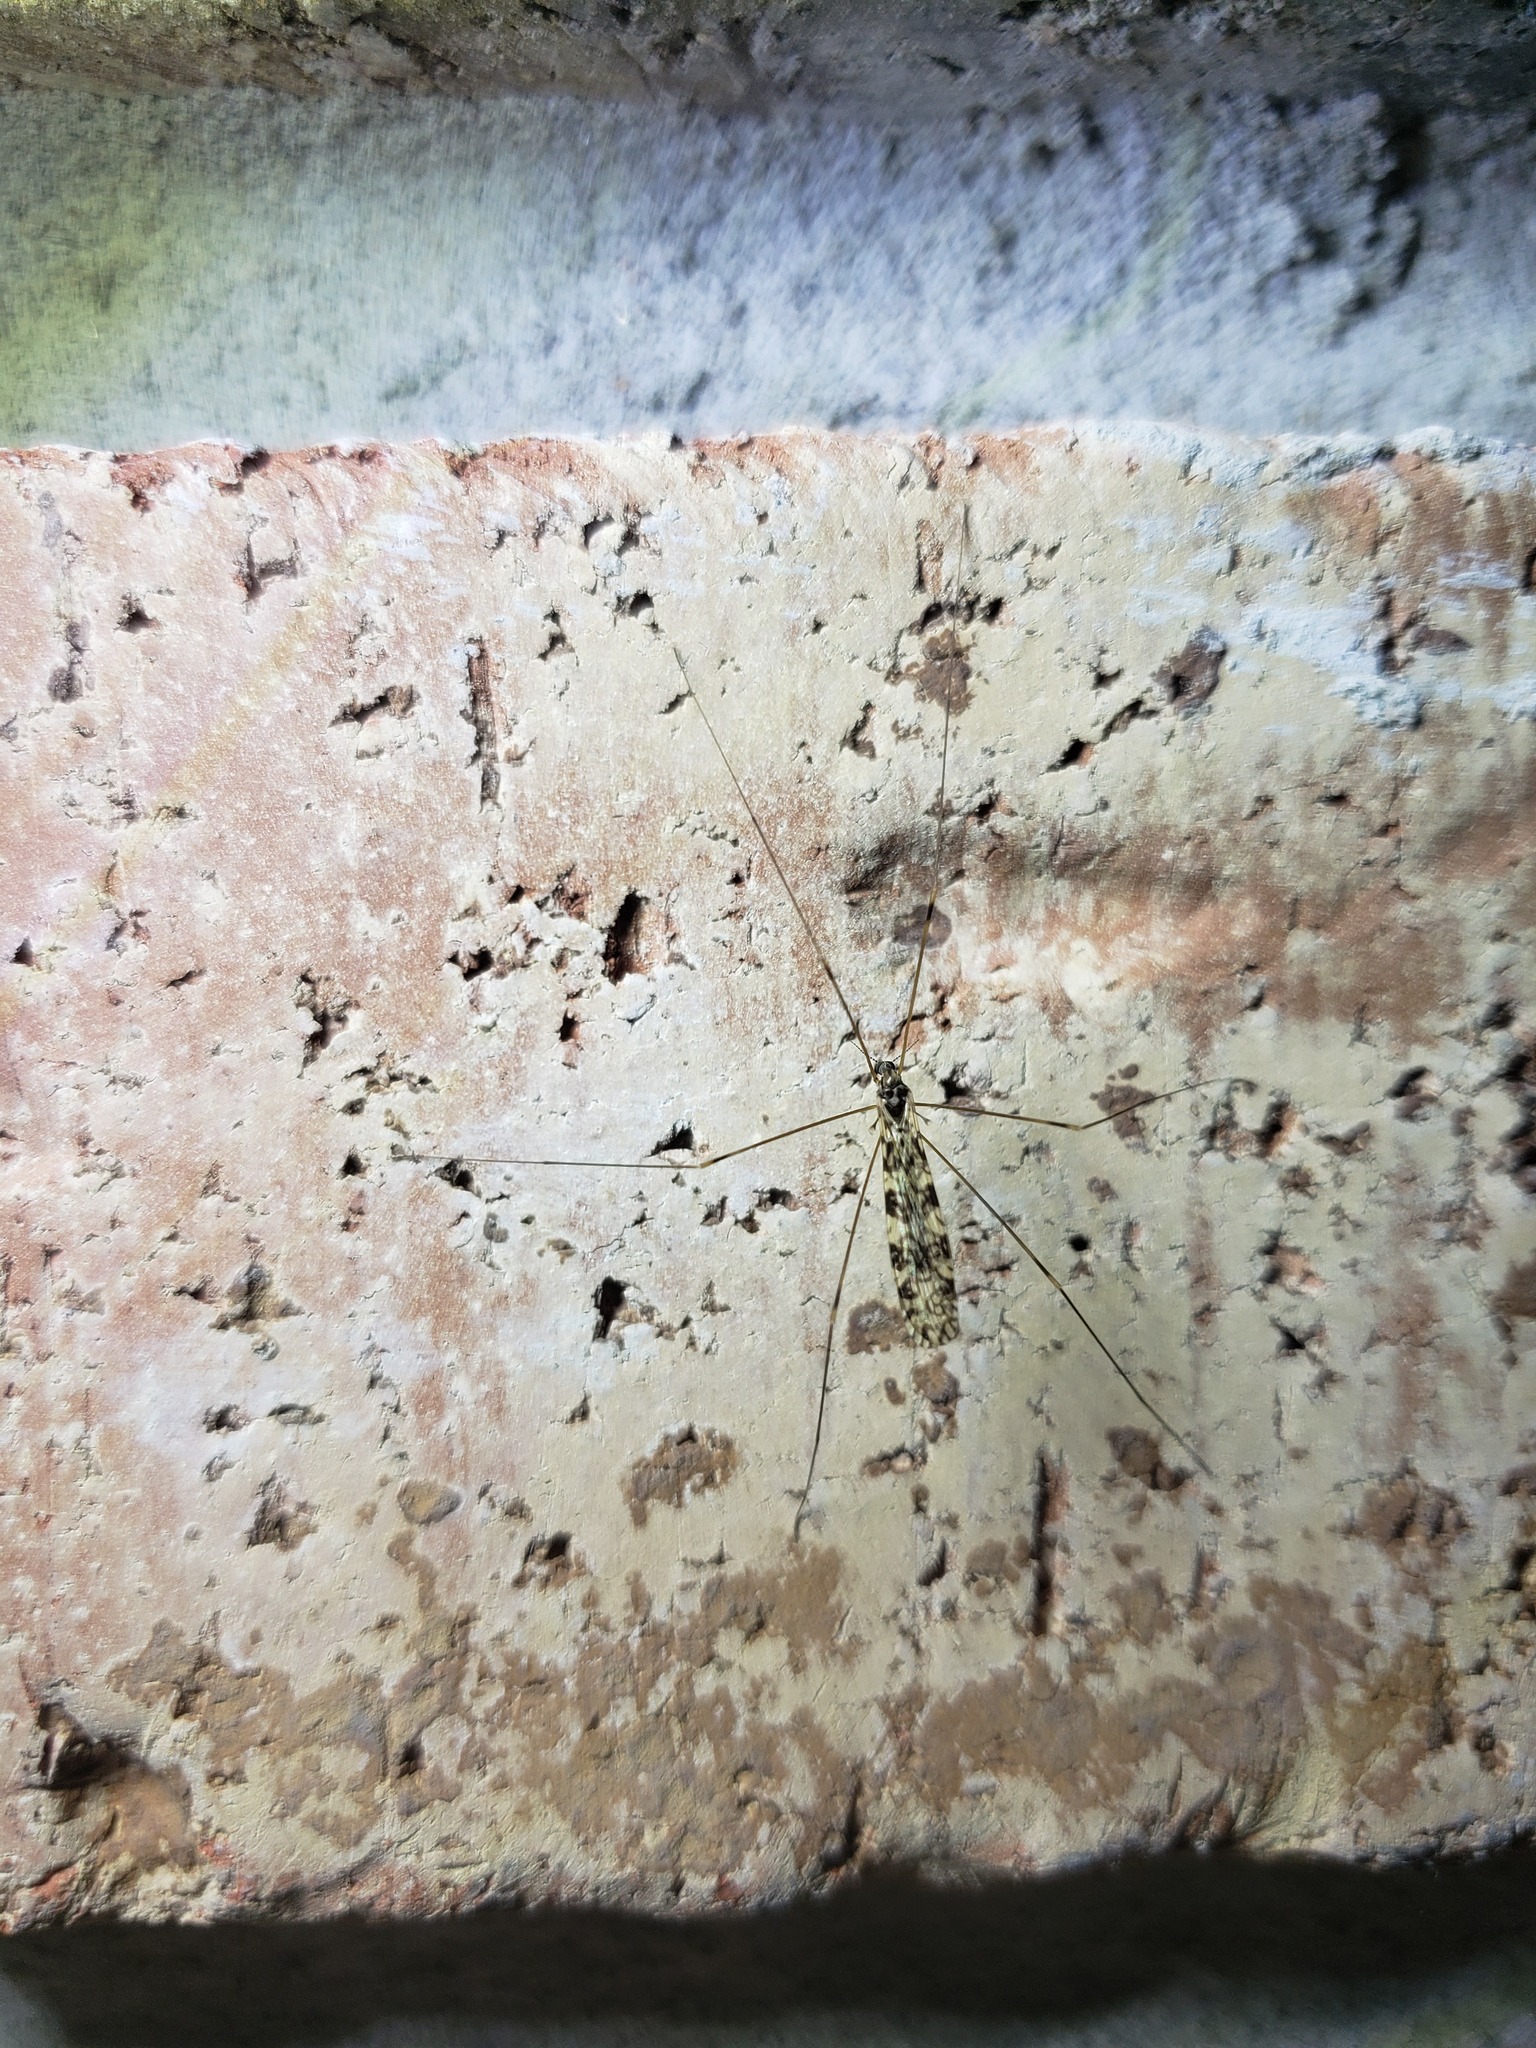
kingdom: Animalia
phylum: Arthropoda
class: Insecta
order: Diptera
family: Limoniidae
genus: Limonia
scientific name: Limonia annulata
